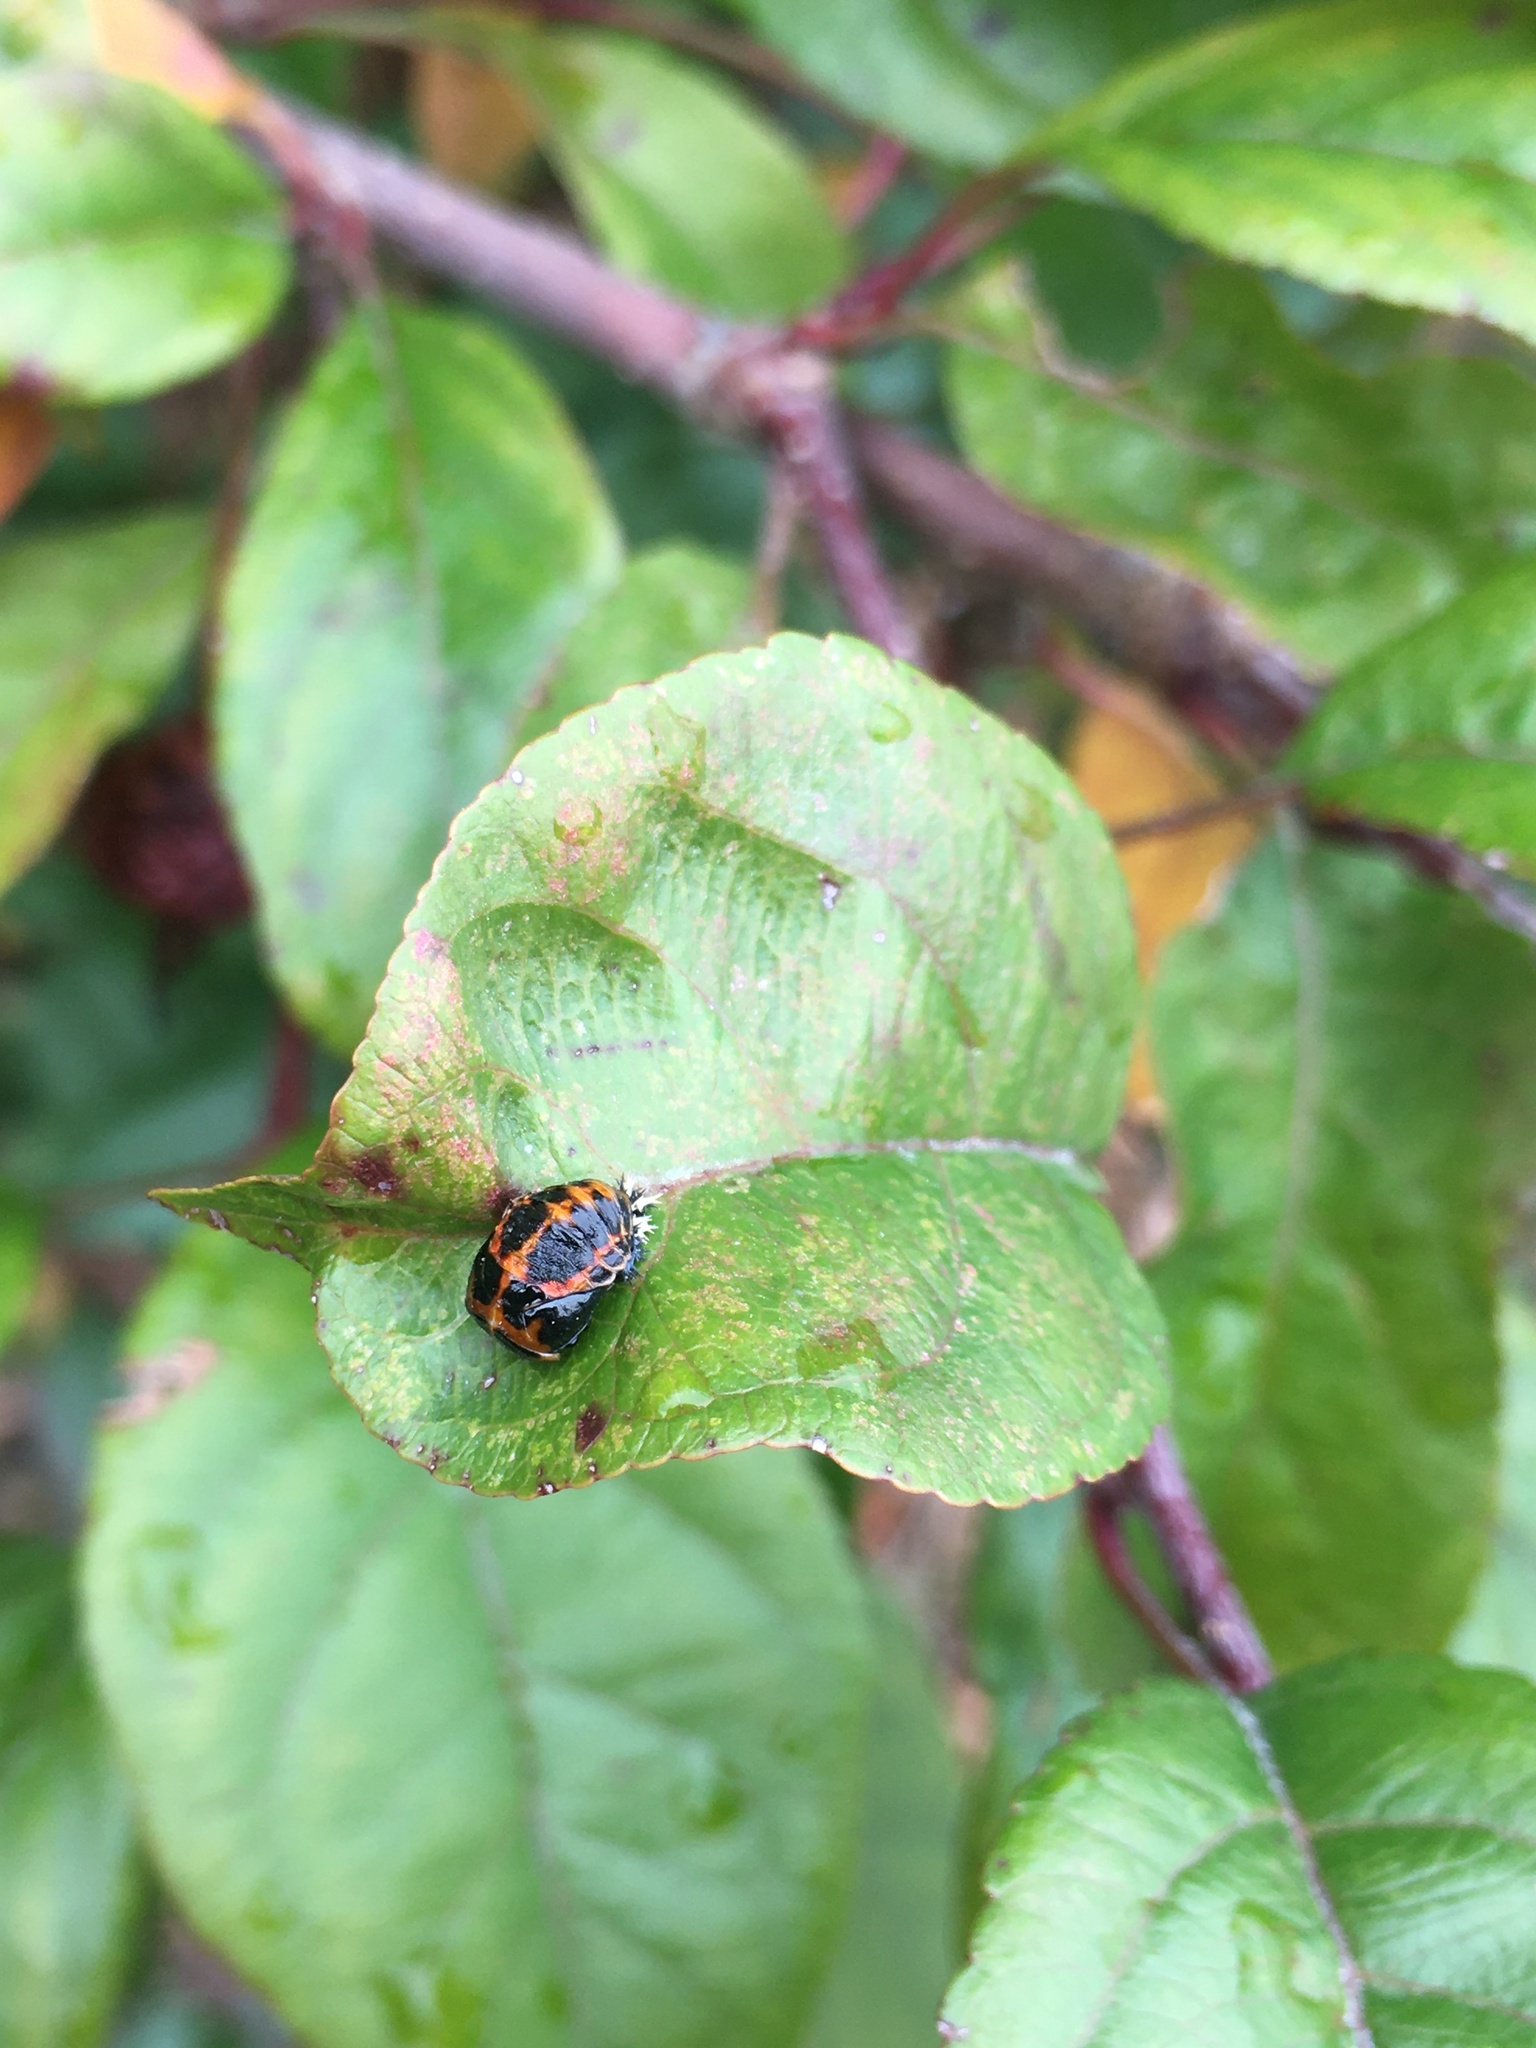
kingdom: Animalia
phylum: Arthropoda
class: Insecta
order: Coleoptera
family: Coccinellidae
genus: Harmonia
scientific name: Harmonia axyridis
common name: Harlequin ladybird
